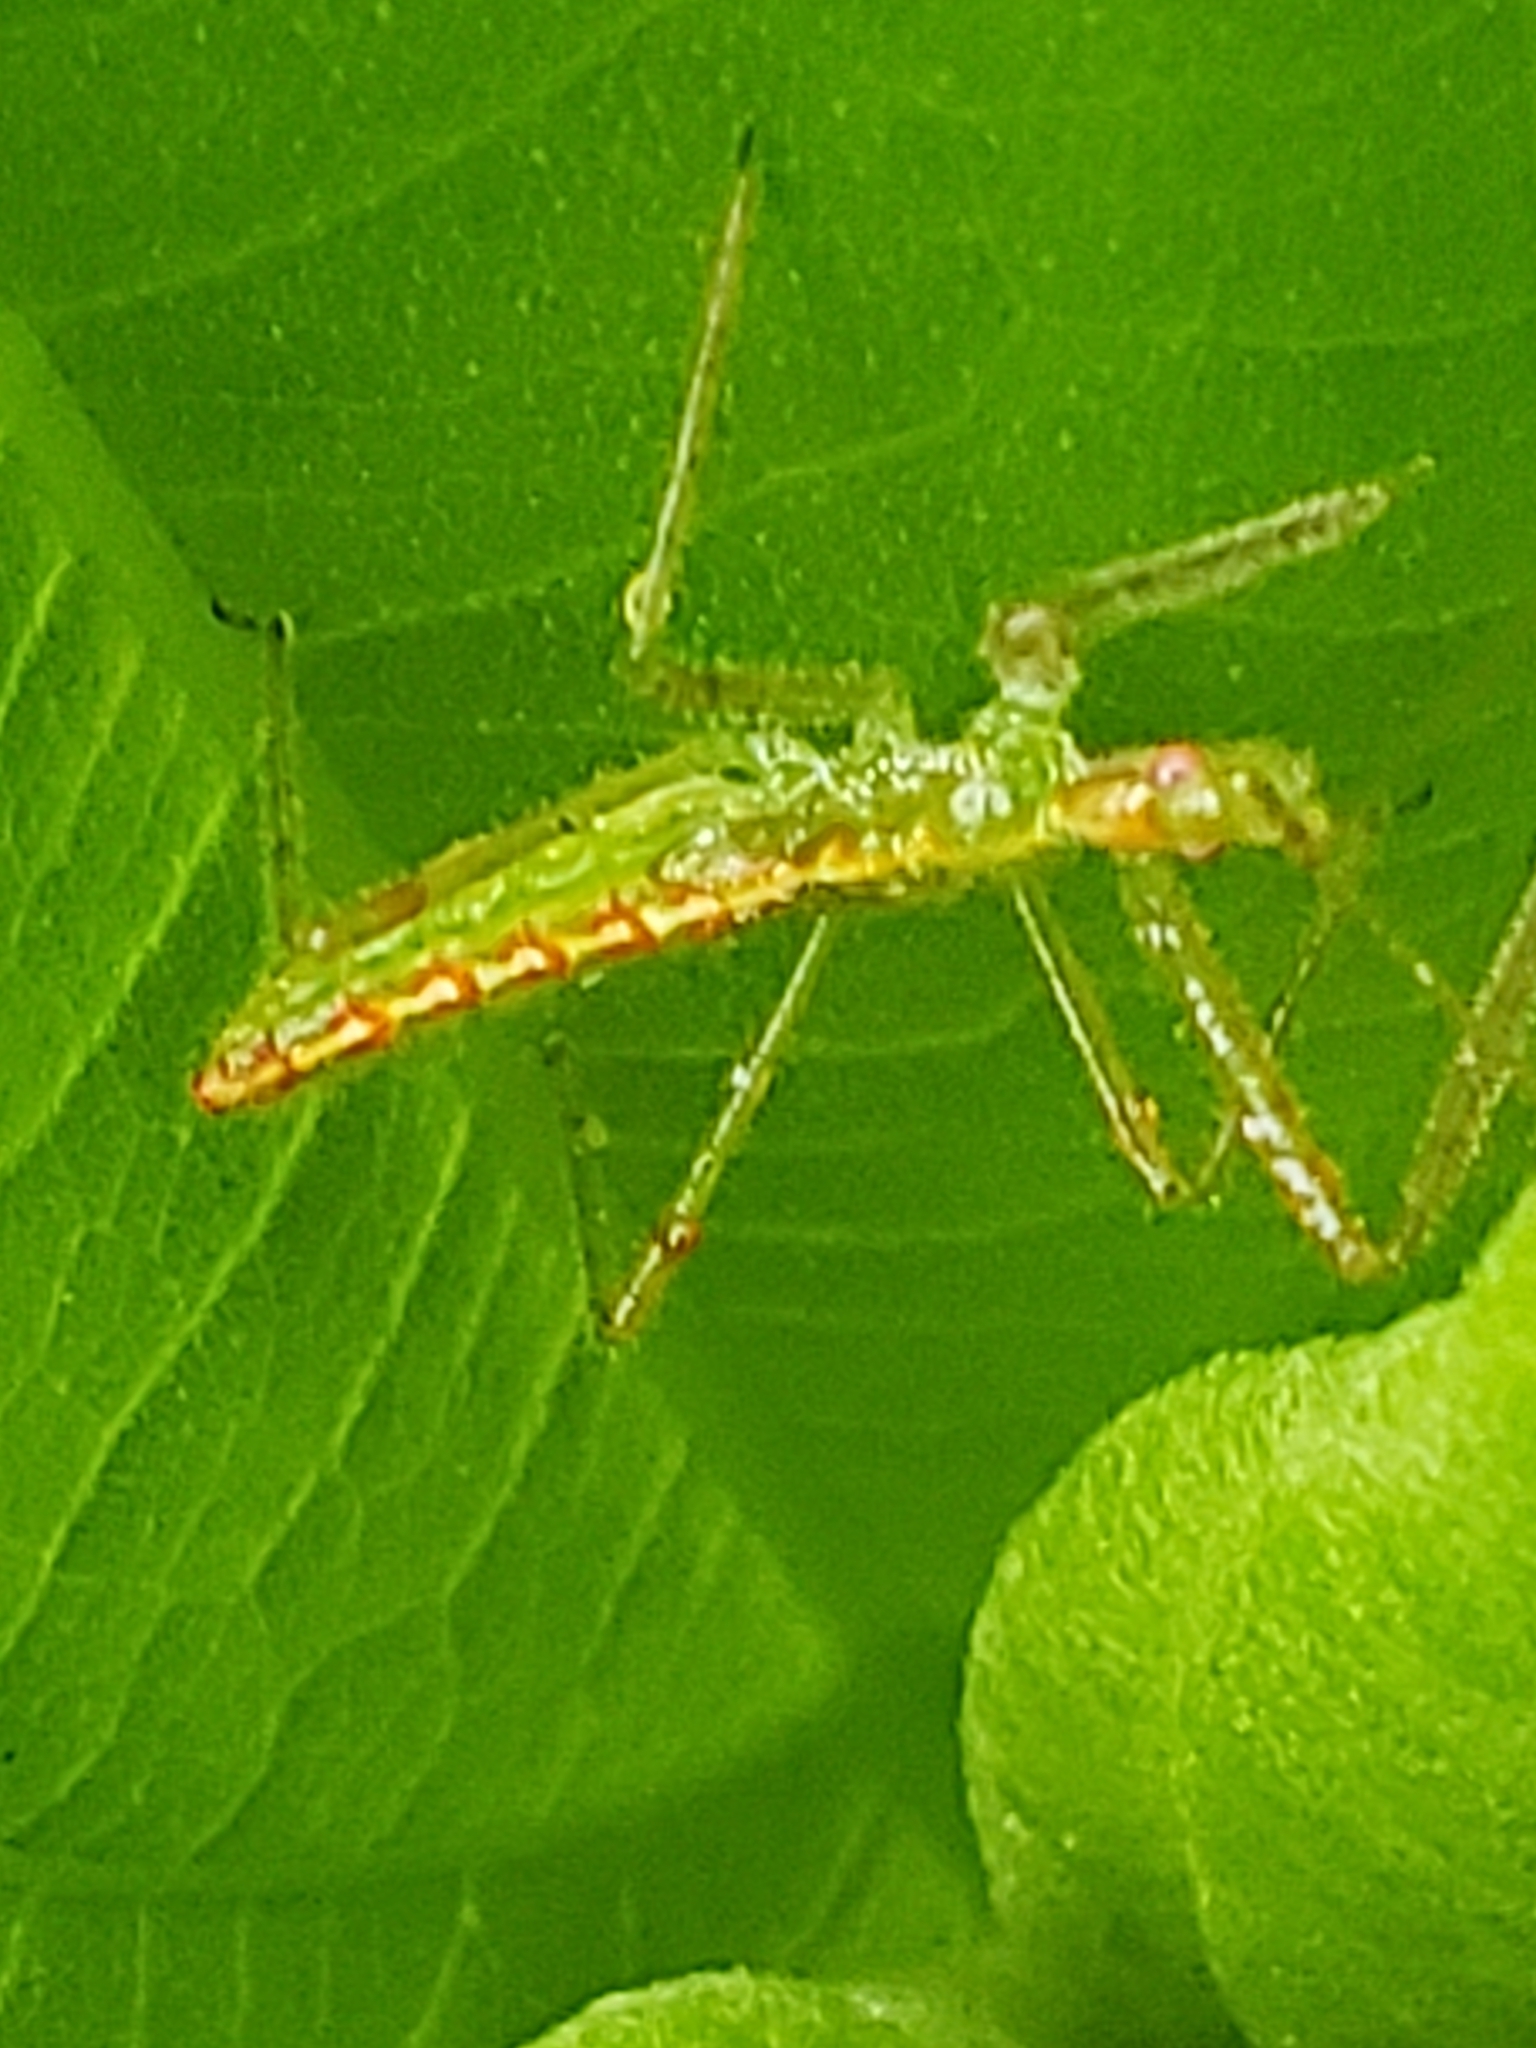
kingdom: Animalia
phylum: Arthropoda
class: Insecta
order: Hemiptera
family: Reduviidae
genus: Zelus
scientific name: Zelus luridus
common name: Pale green assassin bug
